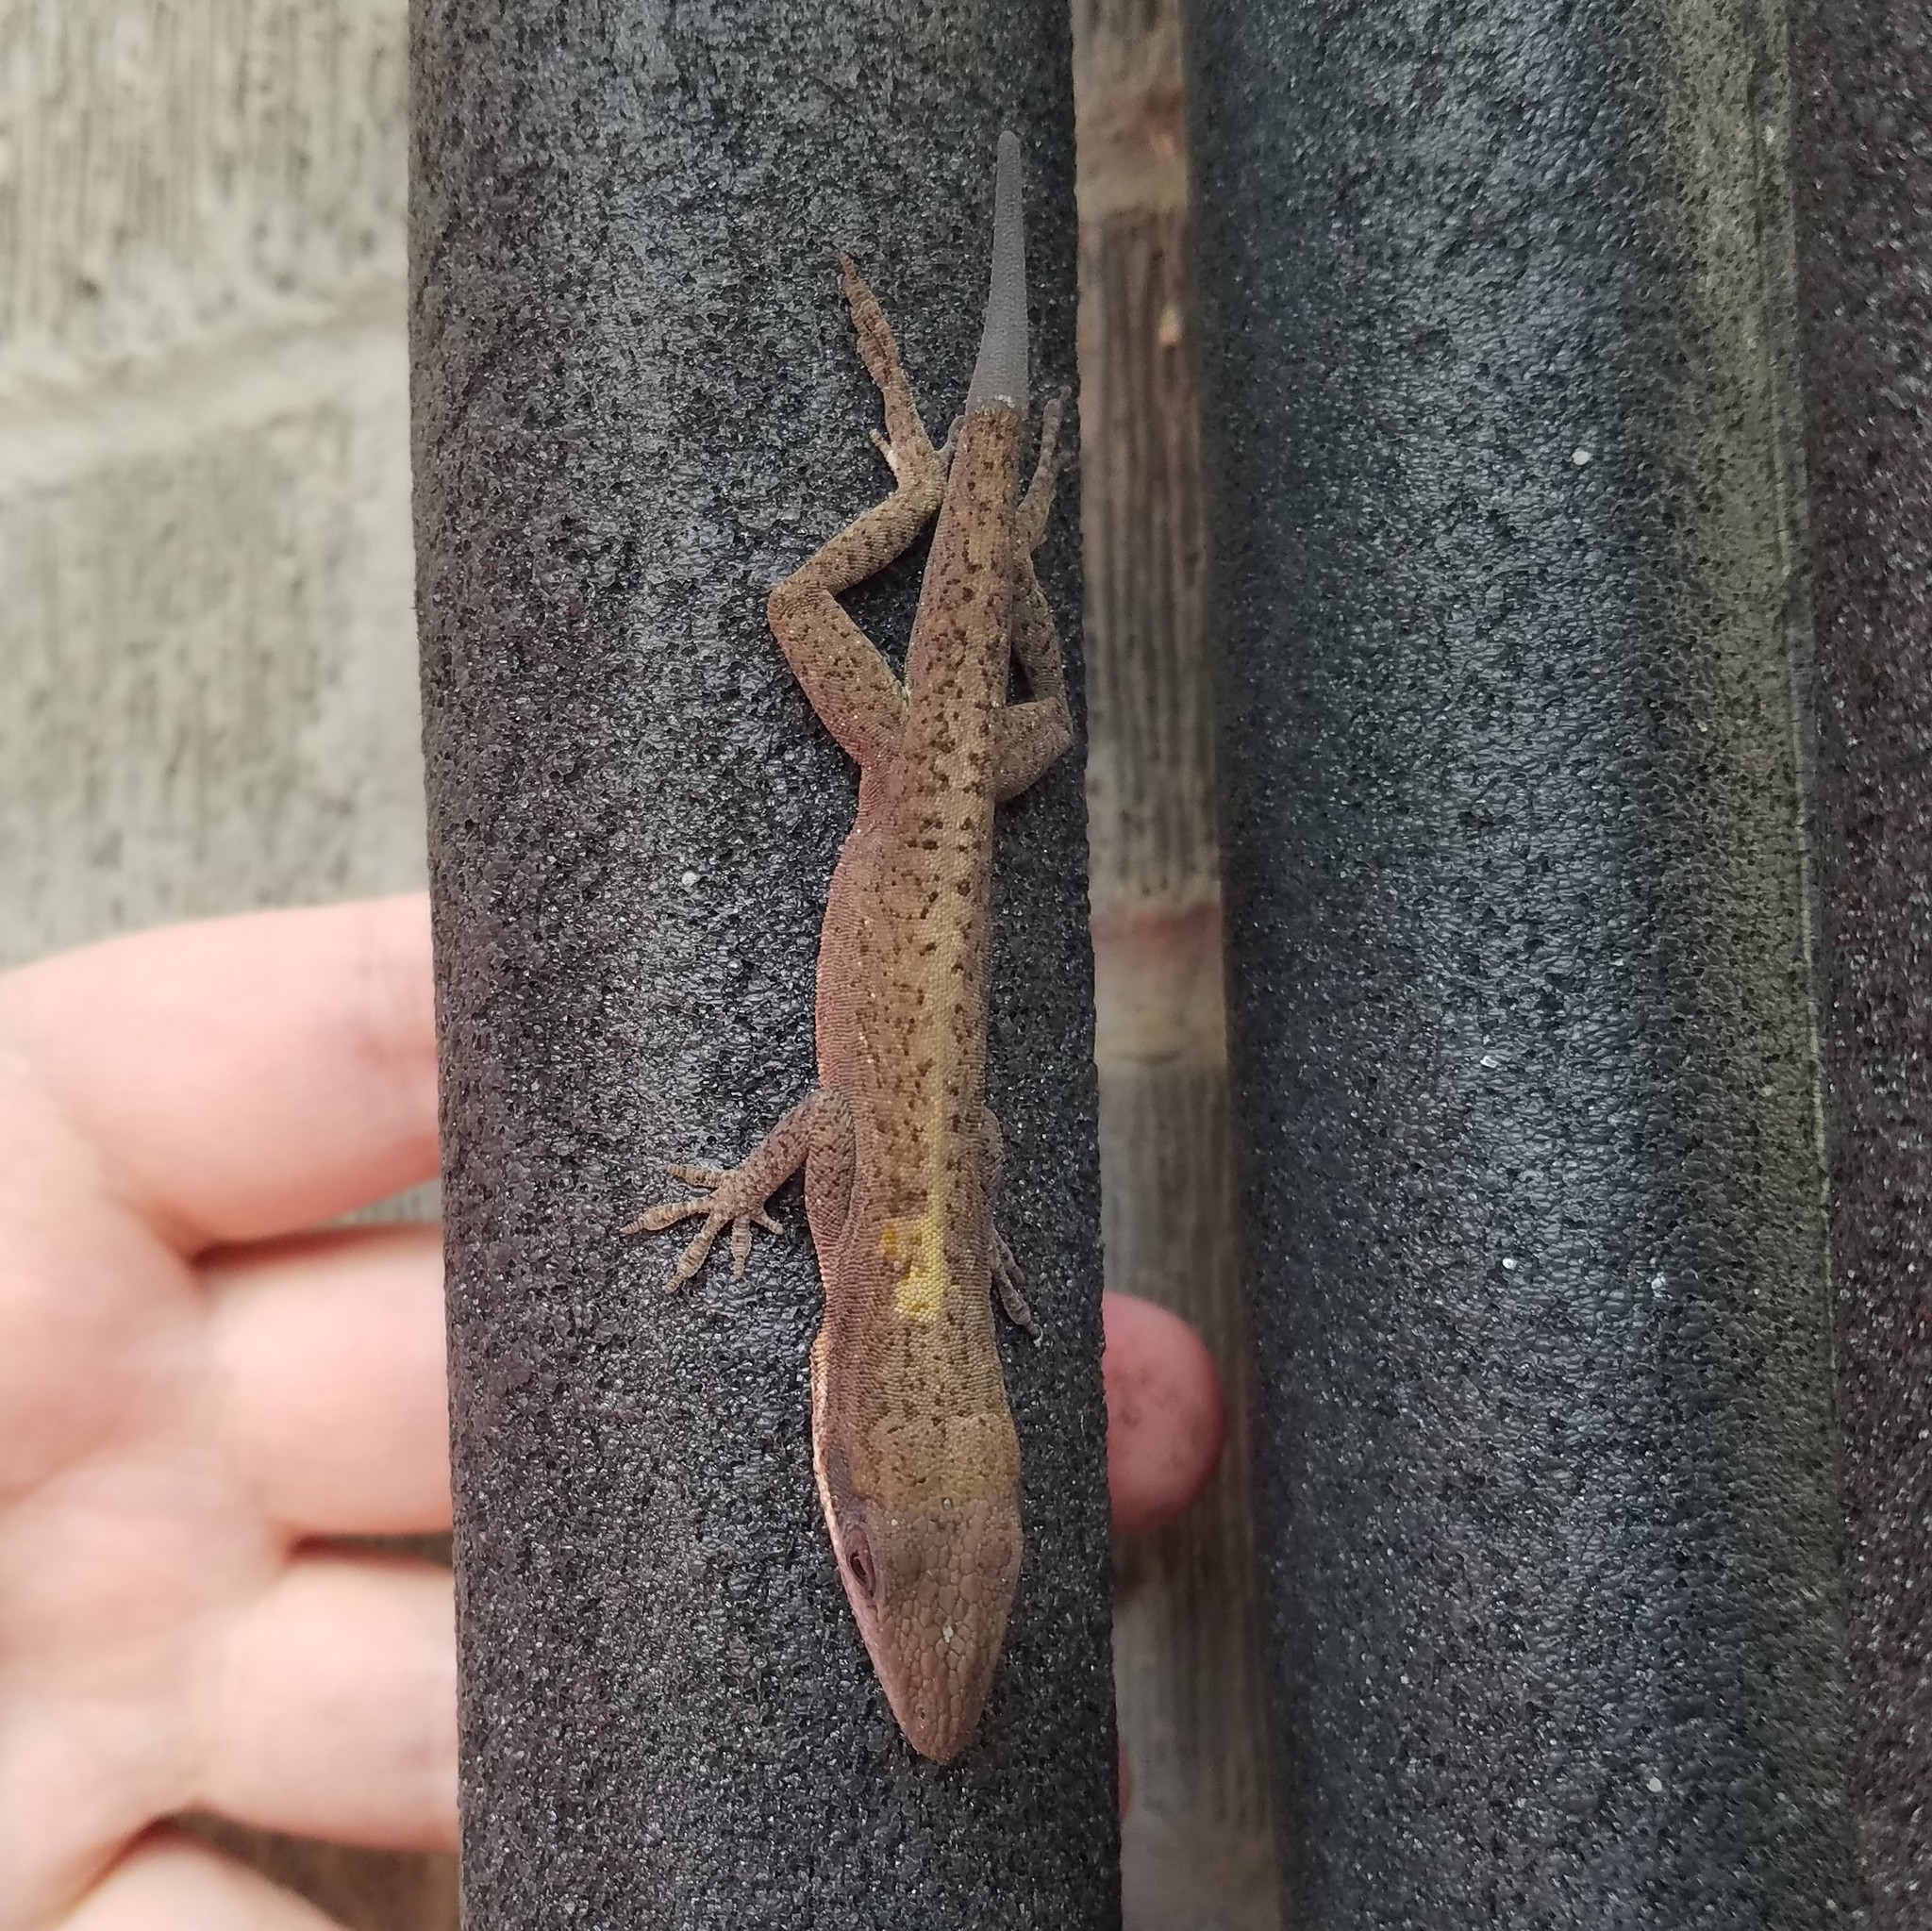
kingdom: Animalia
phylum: Chordata
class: Squamata
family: Dactyloidae
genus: Anolis
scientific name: Anolis carolinensis
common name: Green anole
